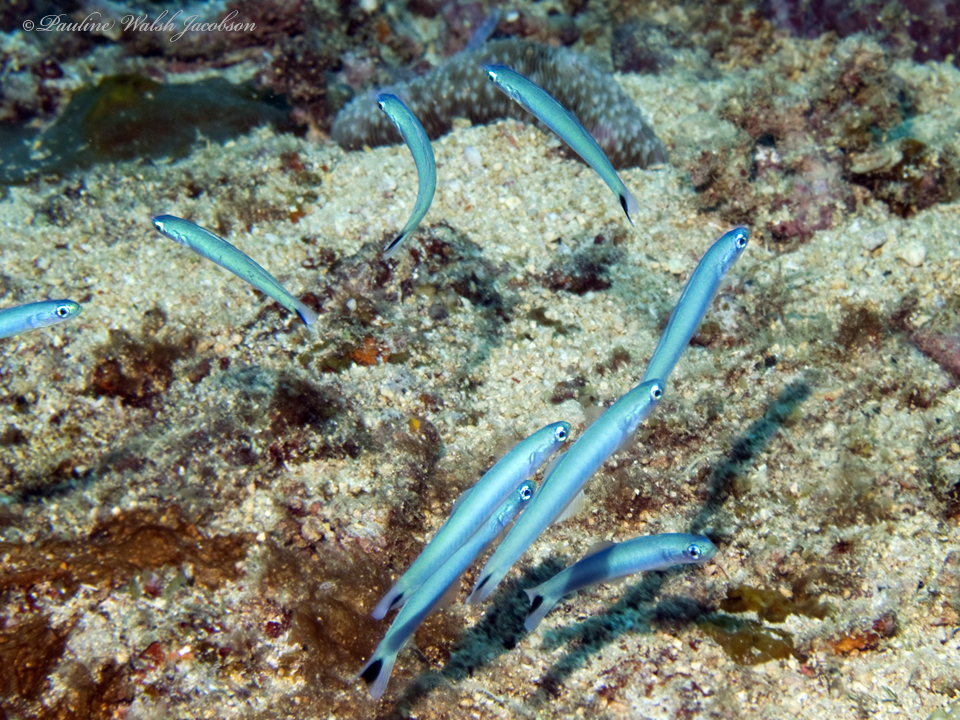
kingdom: Animalia
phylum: Chordata
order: Perciformes
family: Microdesmidae
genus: Ptereleotris
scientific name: Ptereleotris heteroptera
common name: Blacktail goby
